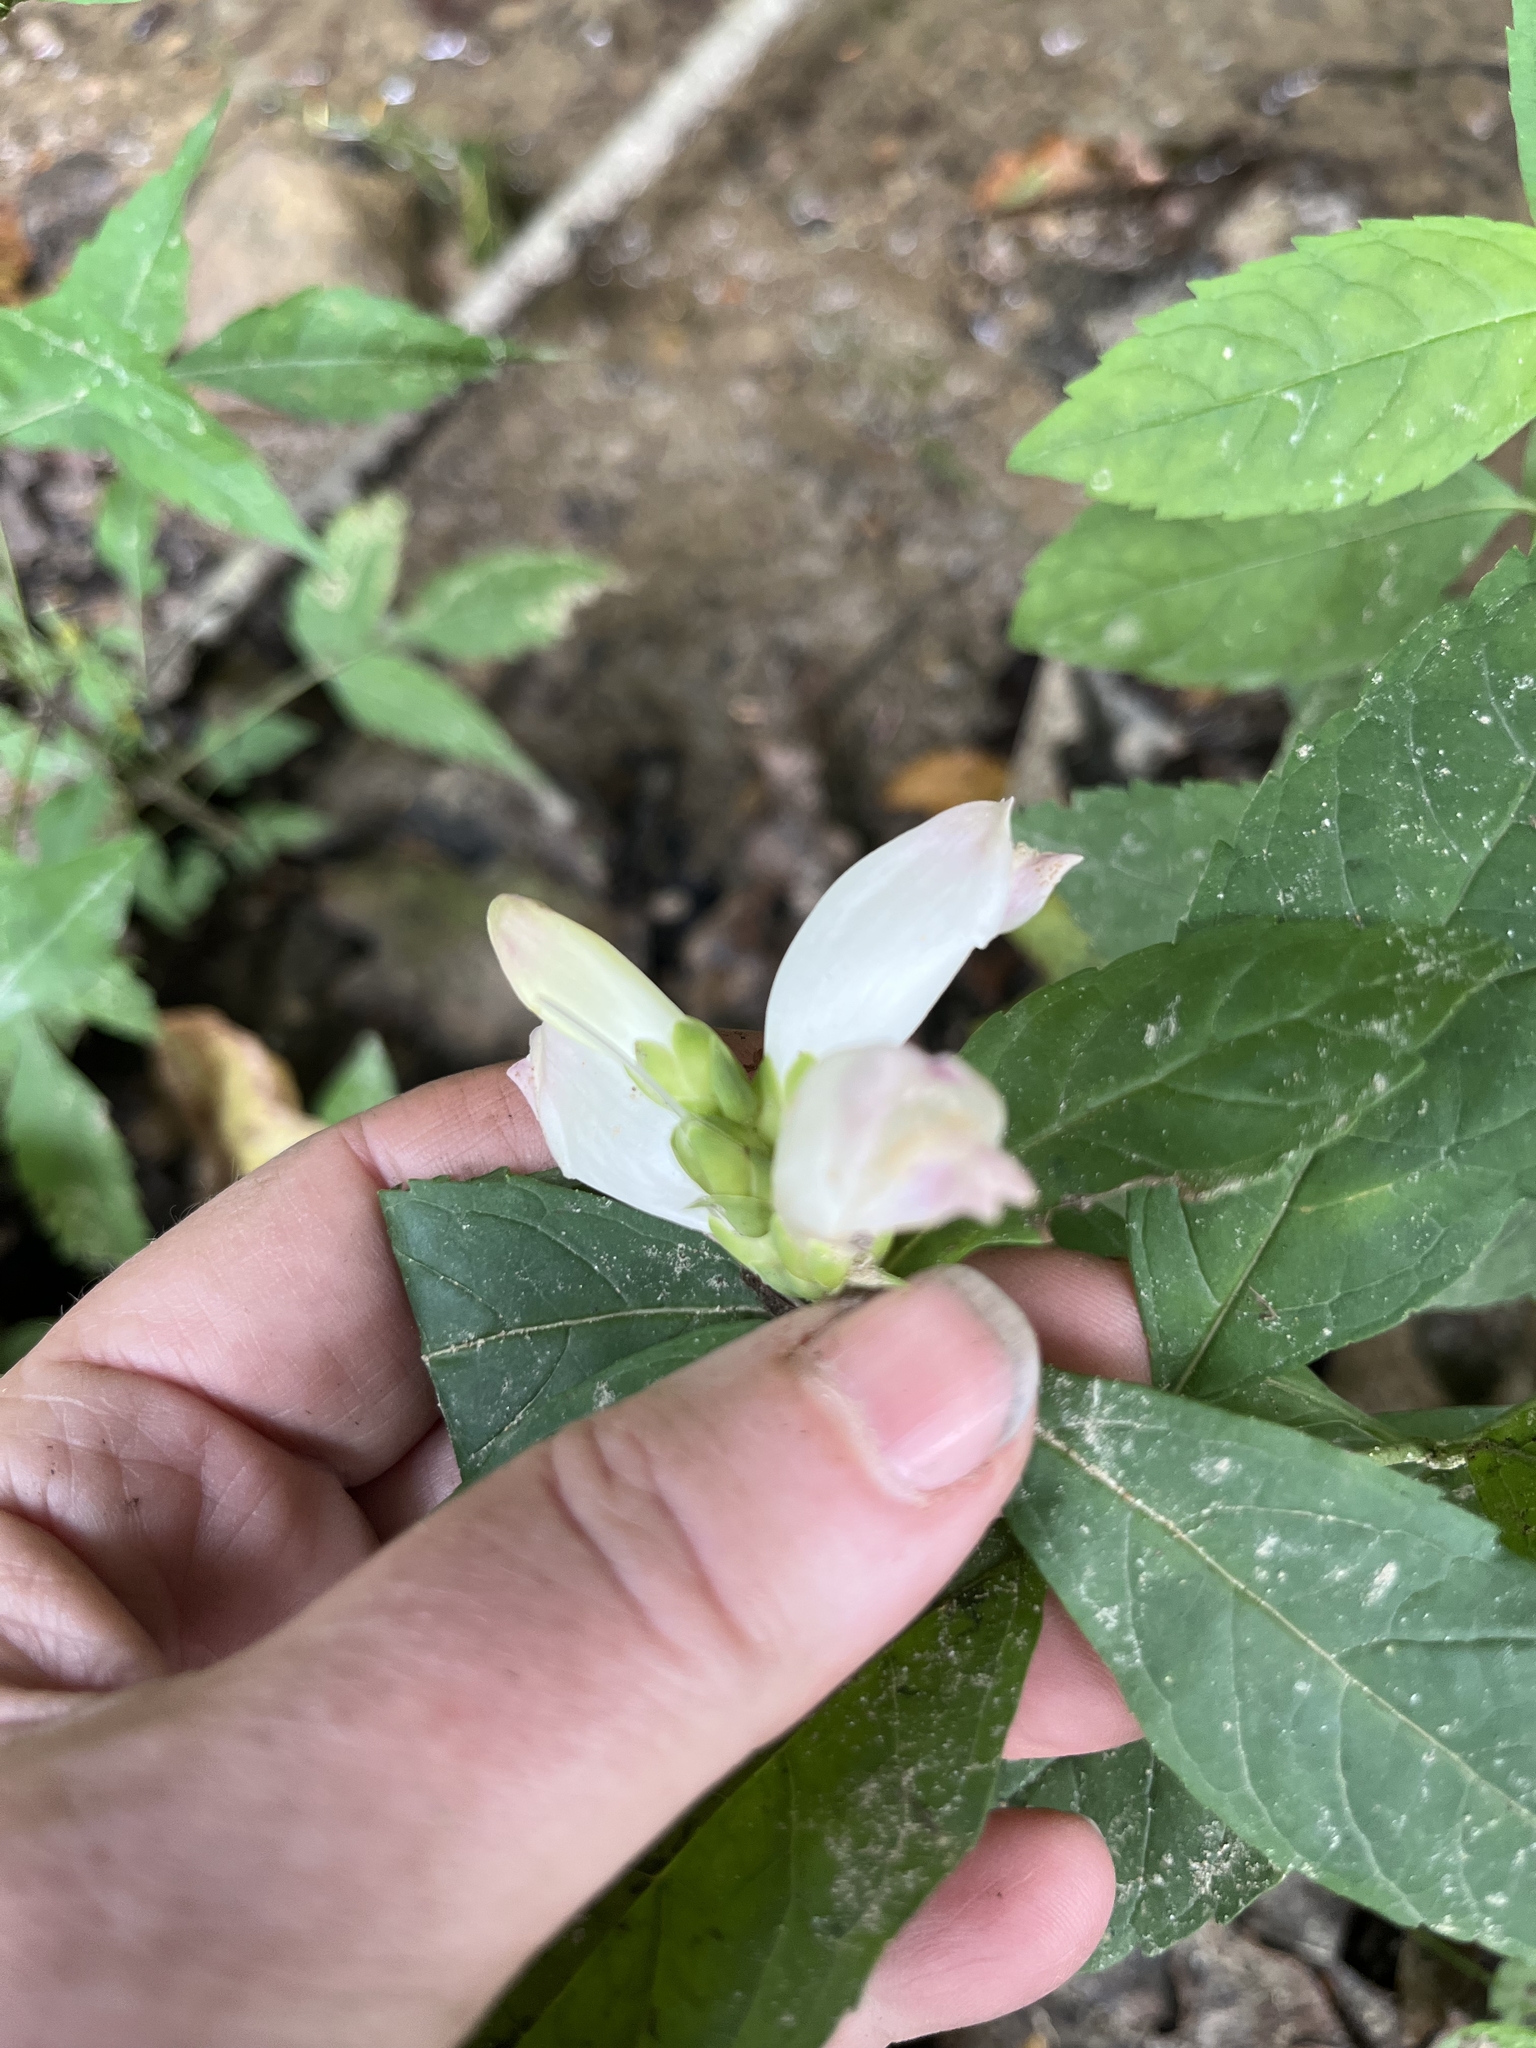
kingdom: Plantae
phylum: Tracheophyta
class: Magnoliopsida
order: Lamiales
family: Plantaginaceae
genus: Chelone
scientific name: Chelone glabra
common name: Snakehead
